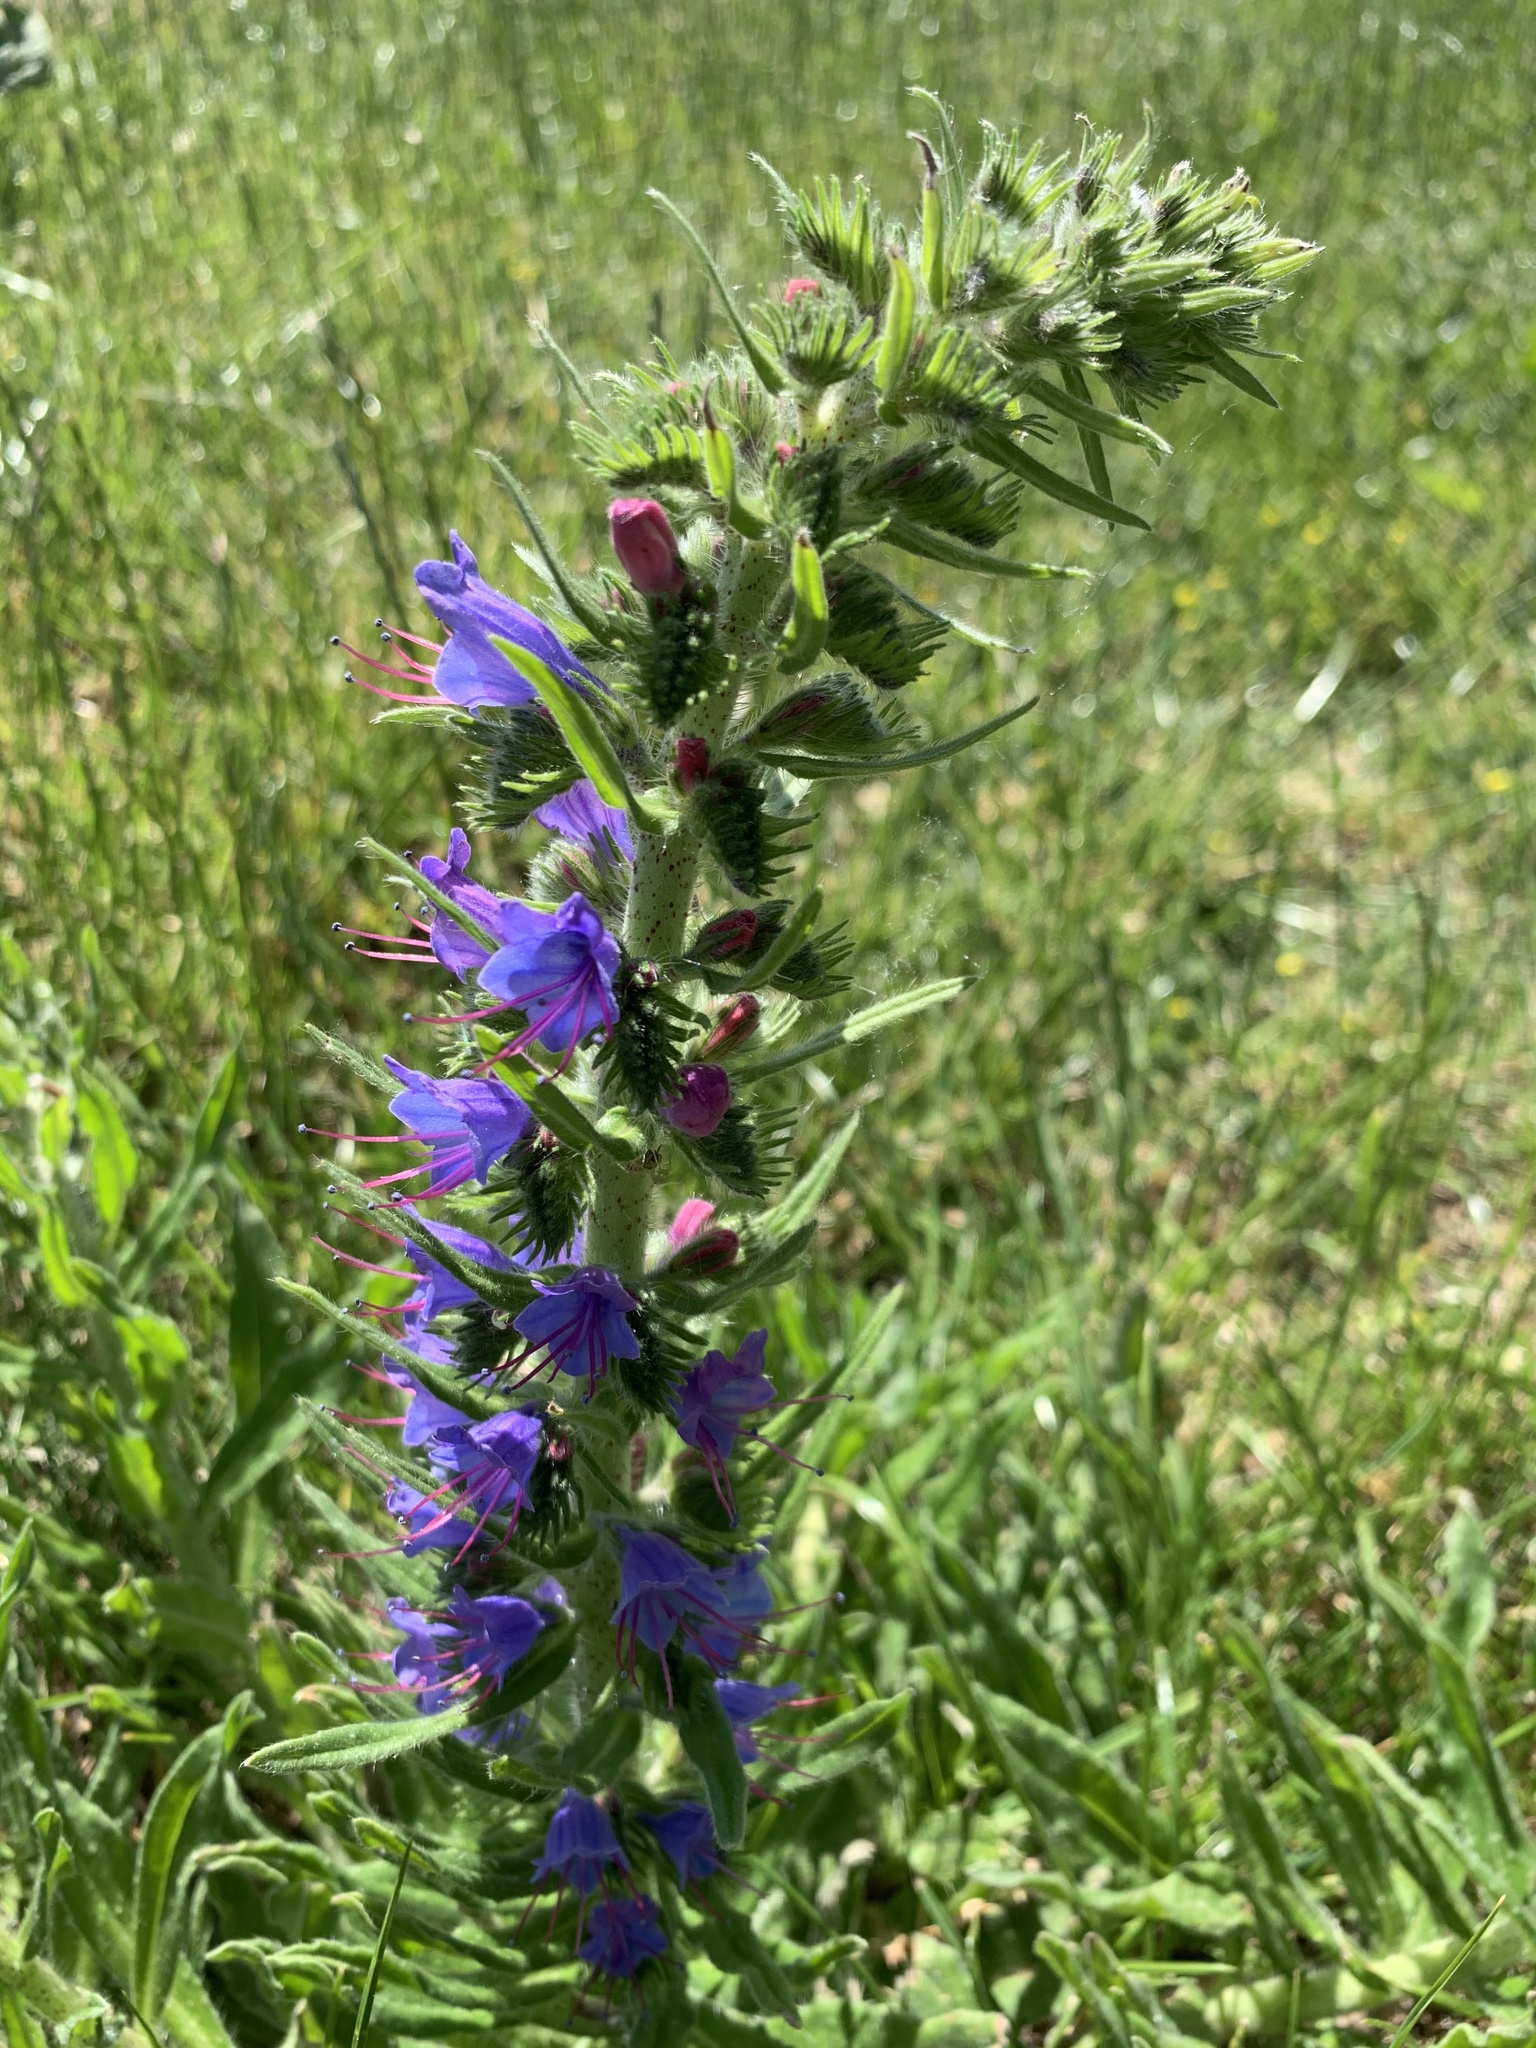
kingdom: Plantae
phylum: Tracheophyta
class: Magnoliopsida
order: Boraginales
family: Boraginaceae
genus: Echium
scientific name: Echium vulgare
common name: Common viper's bugloss
